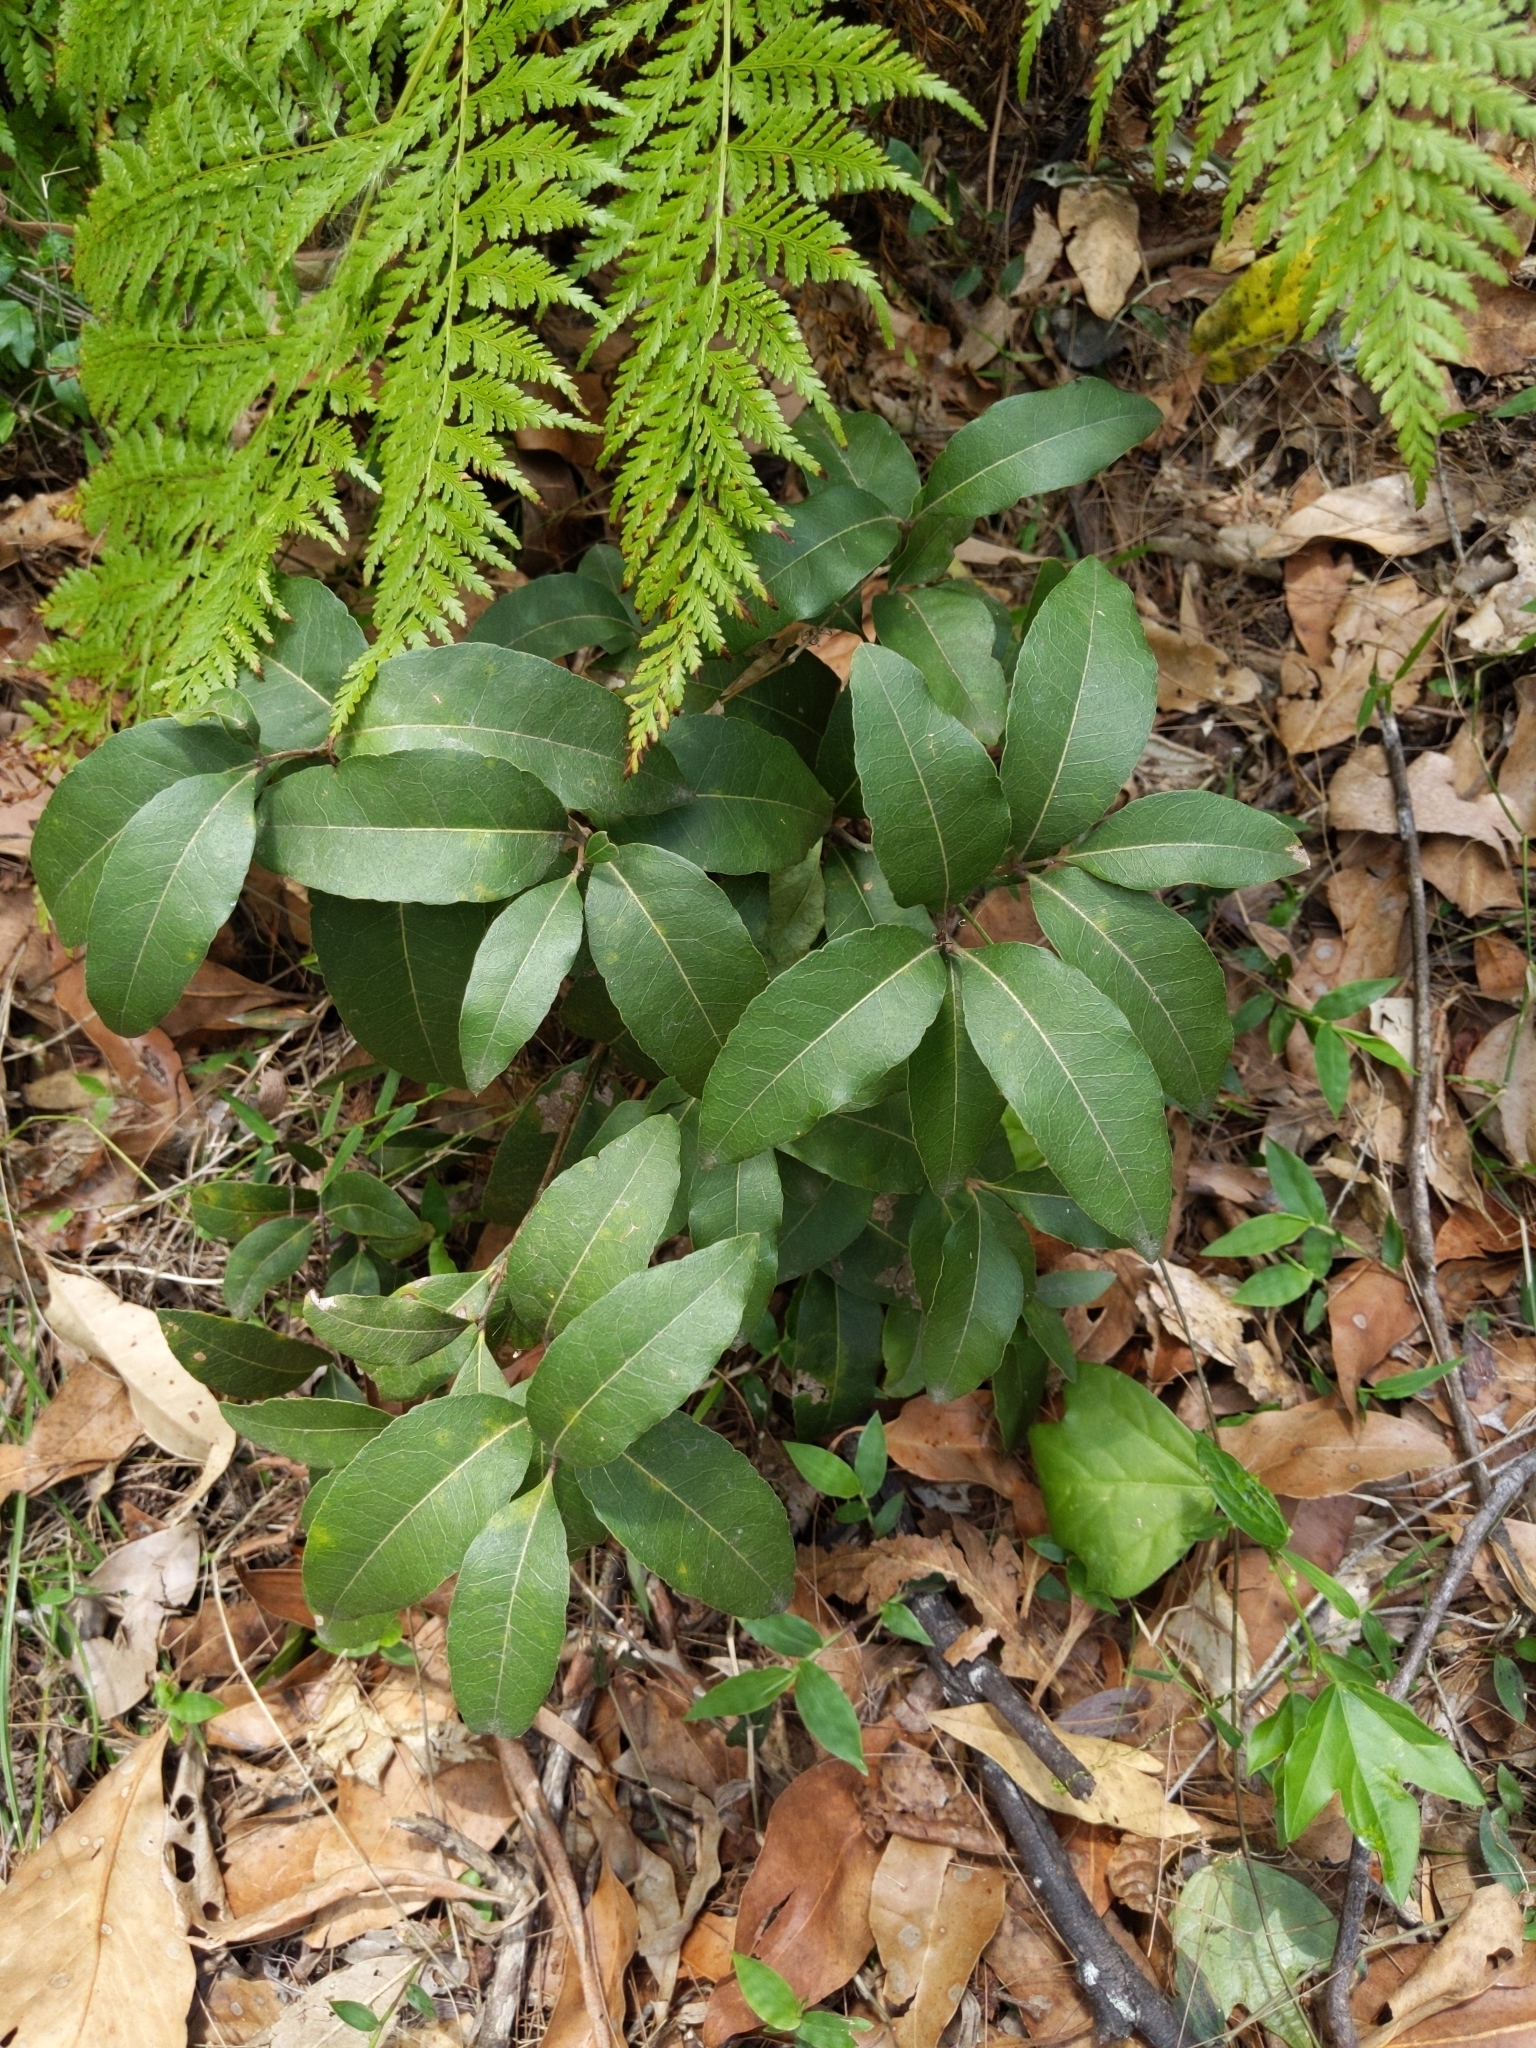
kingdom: Plantae
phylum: Tracheophyta
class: Magnoliopsida
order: Lamiales
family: Oleaceae
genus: Notelaea
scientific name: Notelaea ovata
